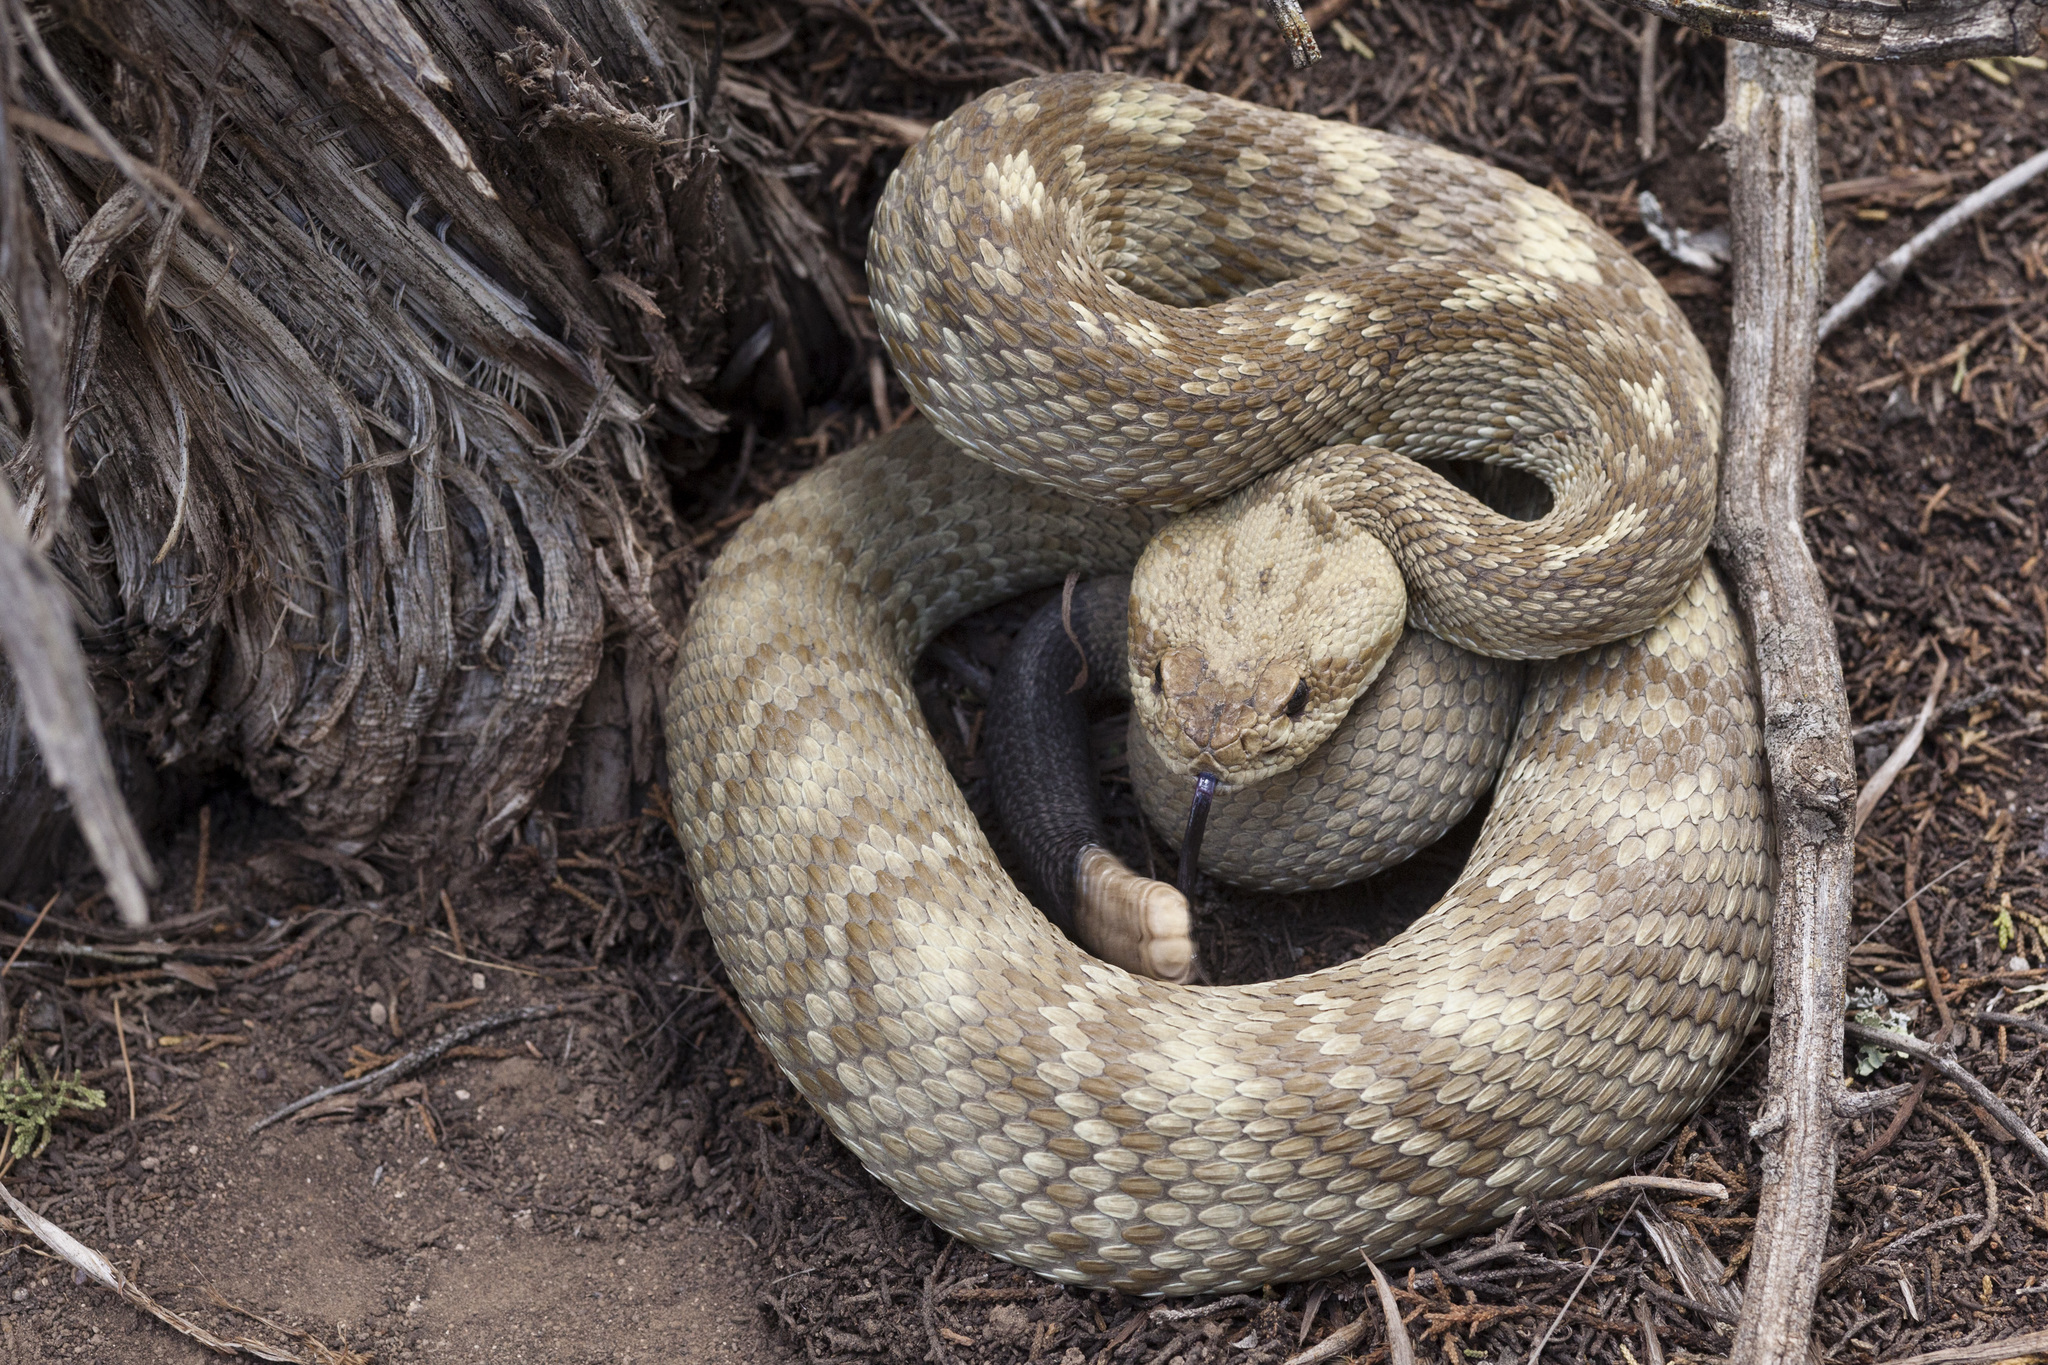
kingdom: Animalia
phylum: Chordata
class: Squamata
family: Viperidae
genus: Crotalus
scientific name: Crotalus ornatus
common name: Black-tailed rattlesnake
